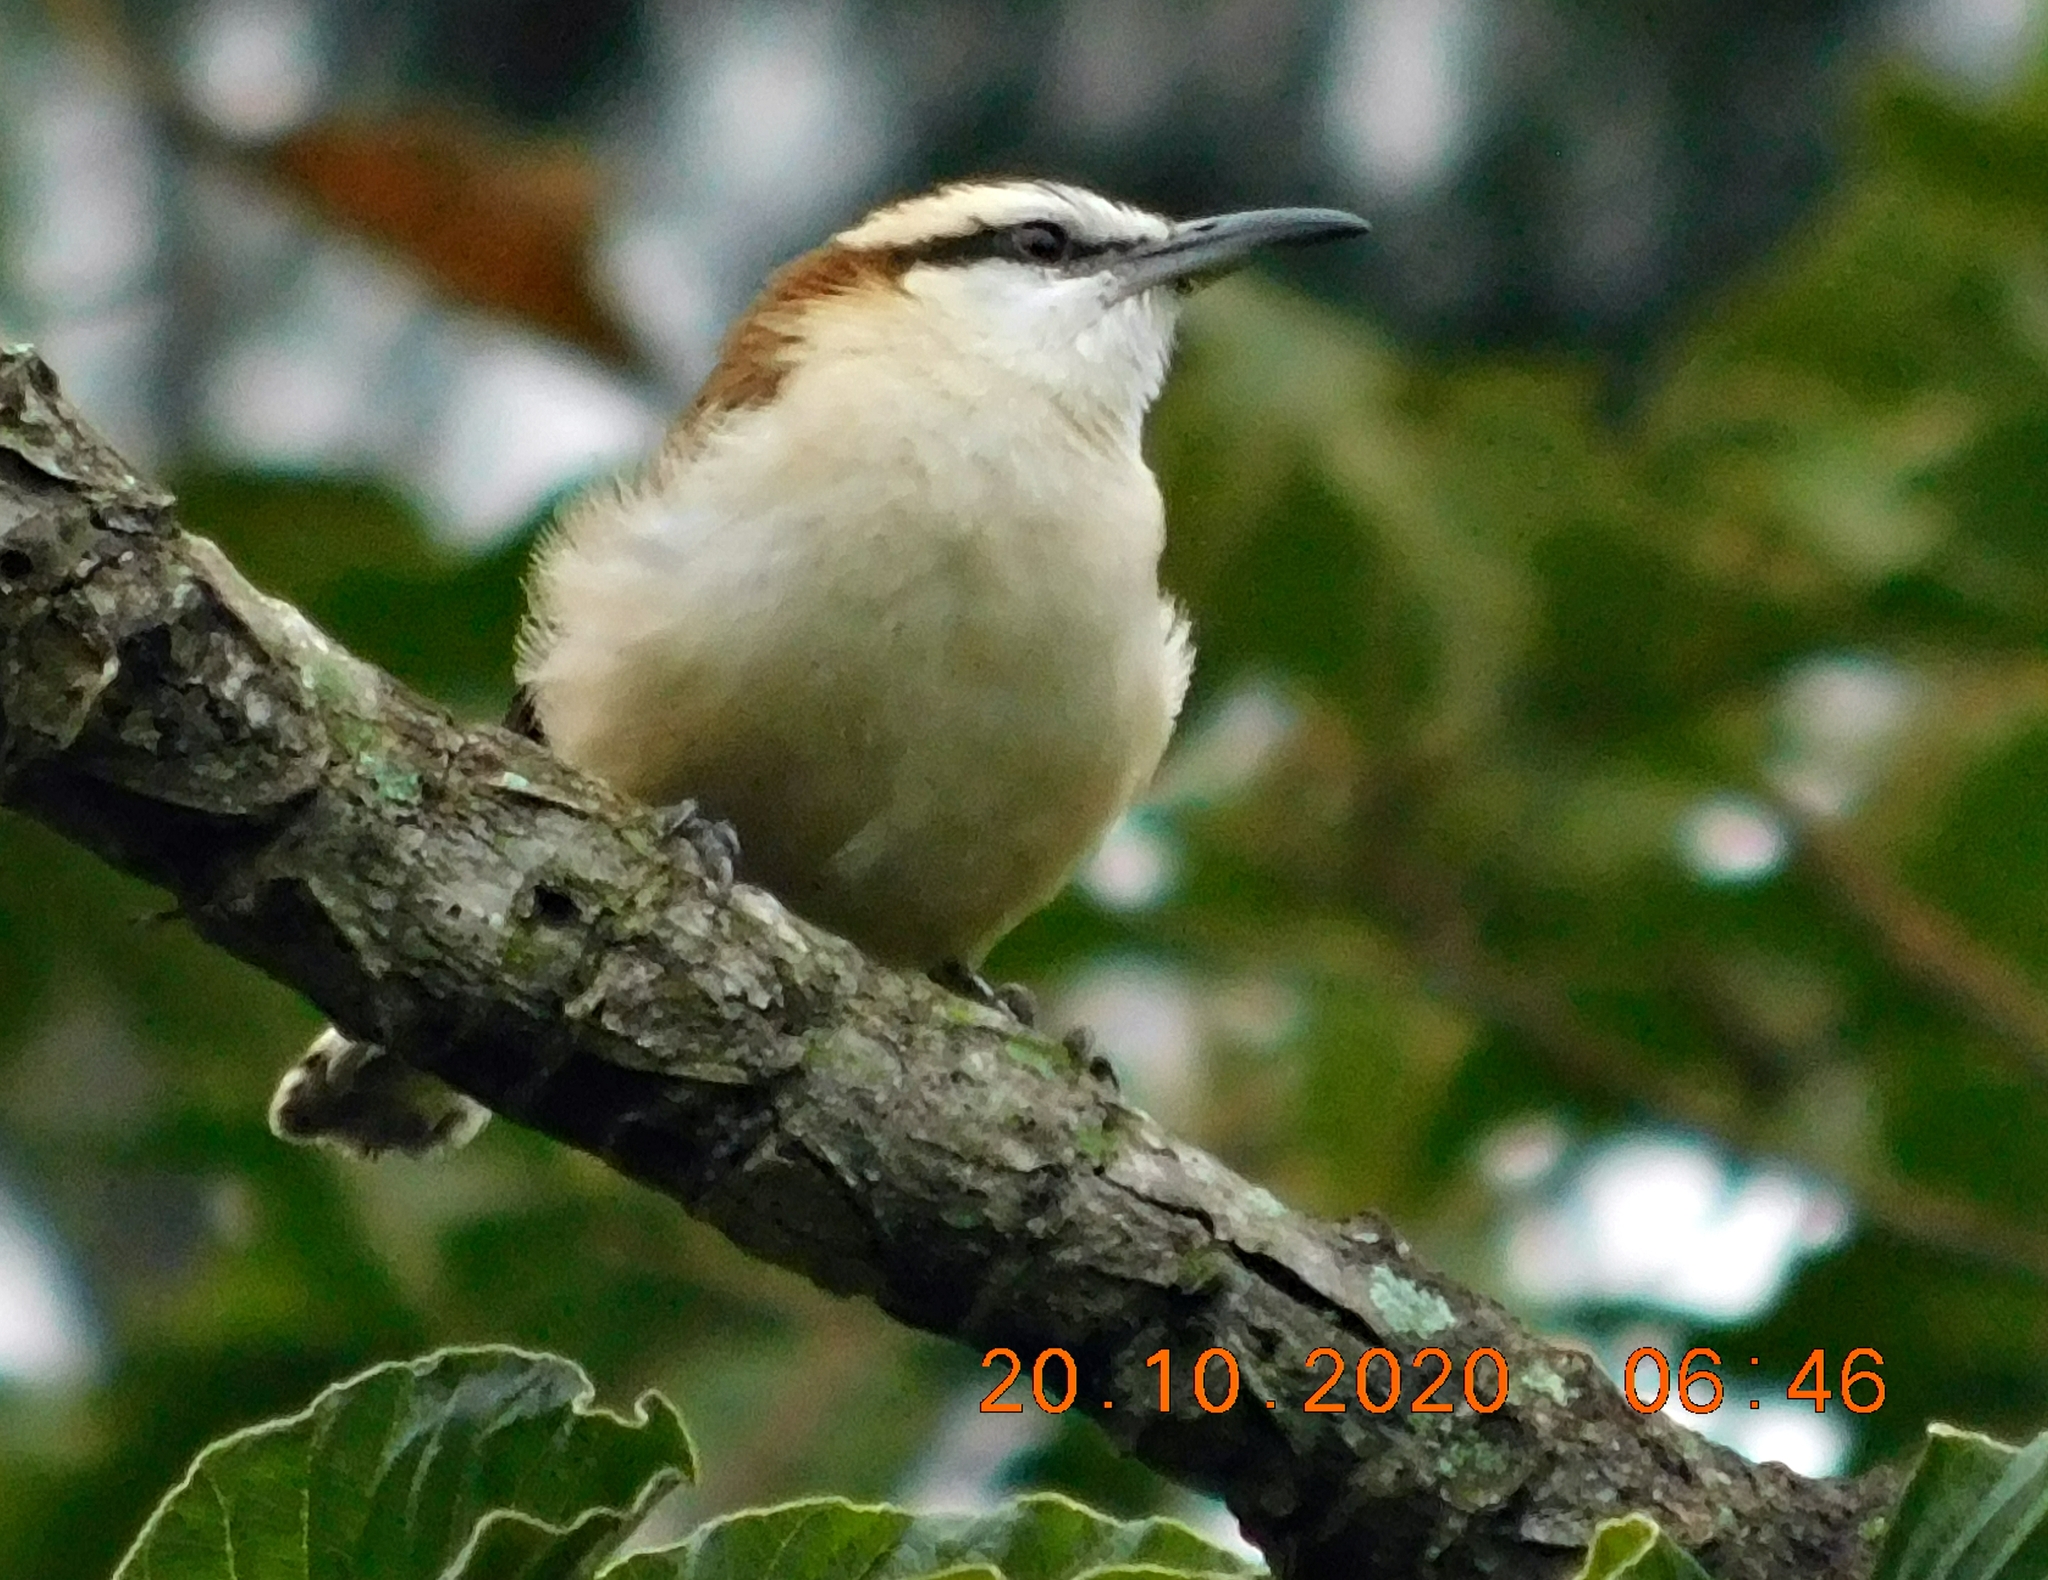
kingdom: Animalia
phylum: Chordata
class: Aves
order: Passeriformes
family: Troglodytidae
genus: Campylorhynchus
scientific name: Campylorhynchus rufinucha
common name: Rufous-naped wren
